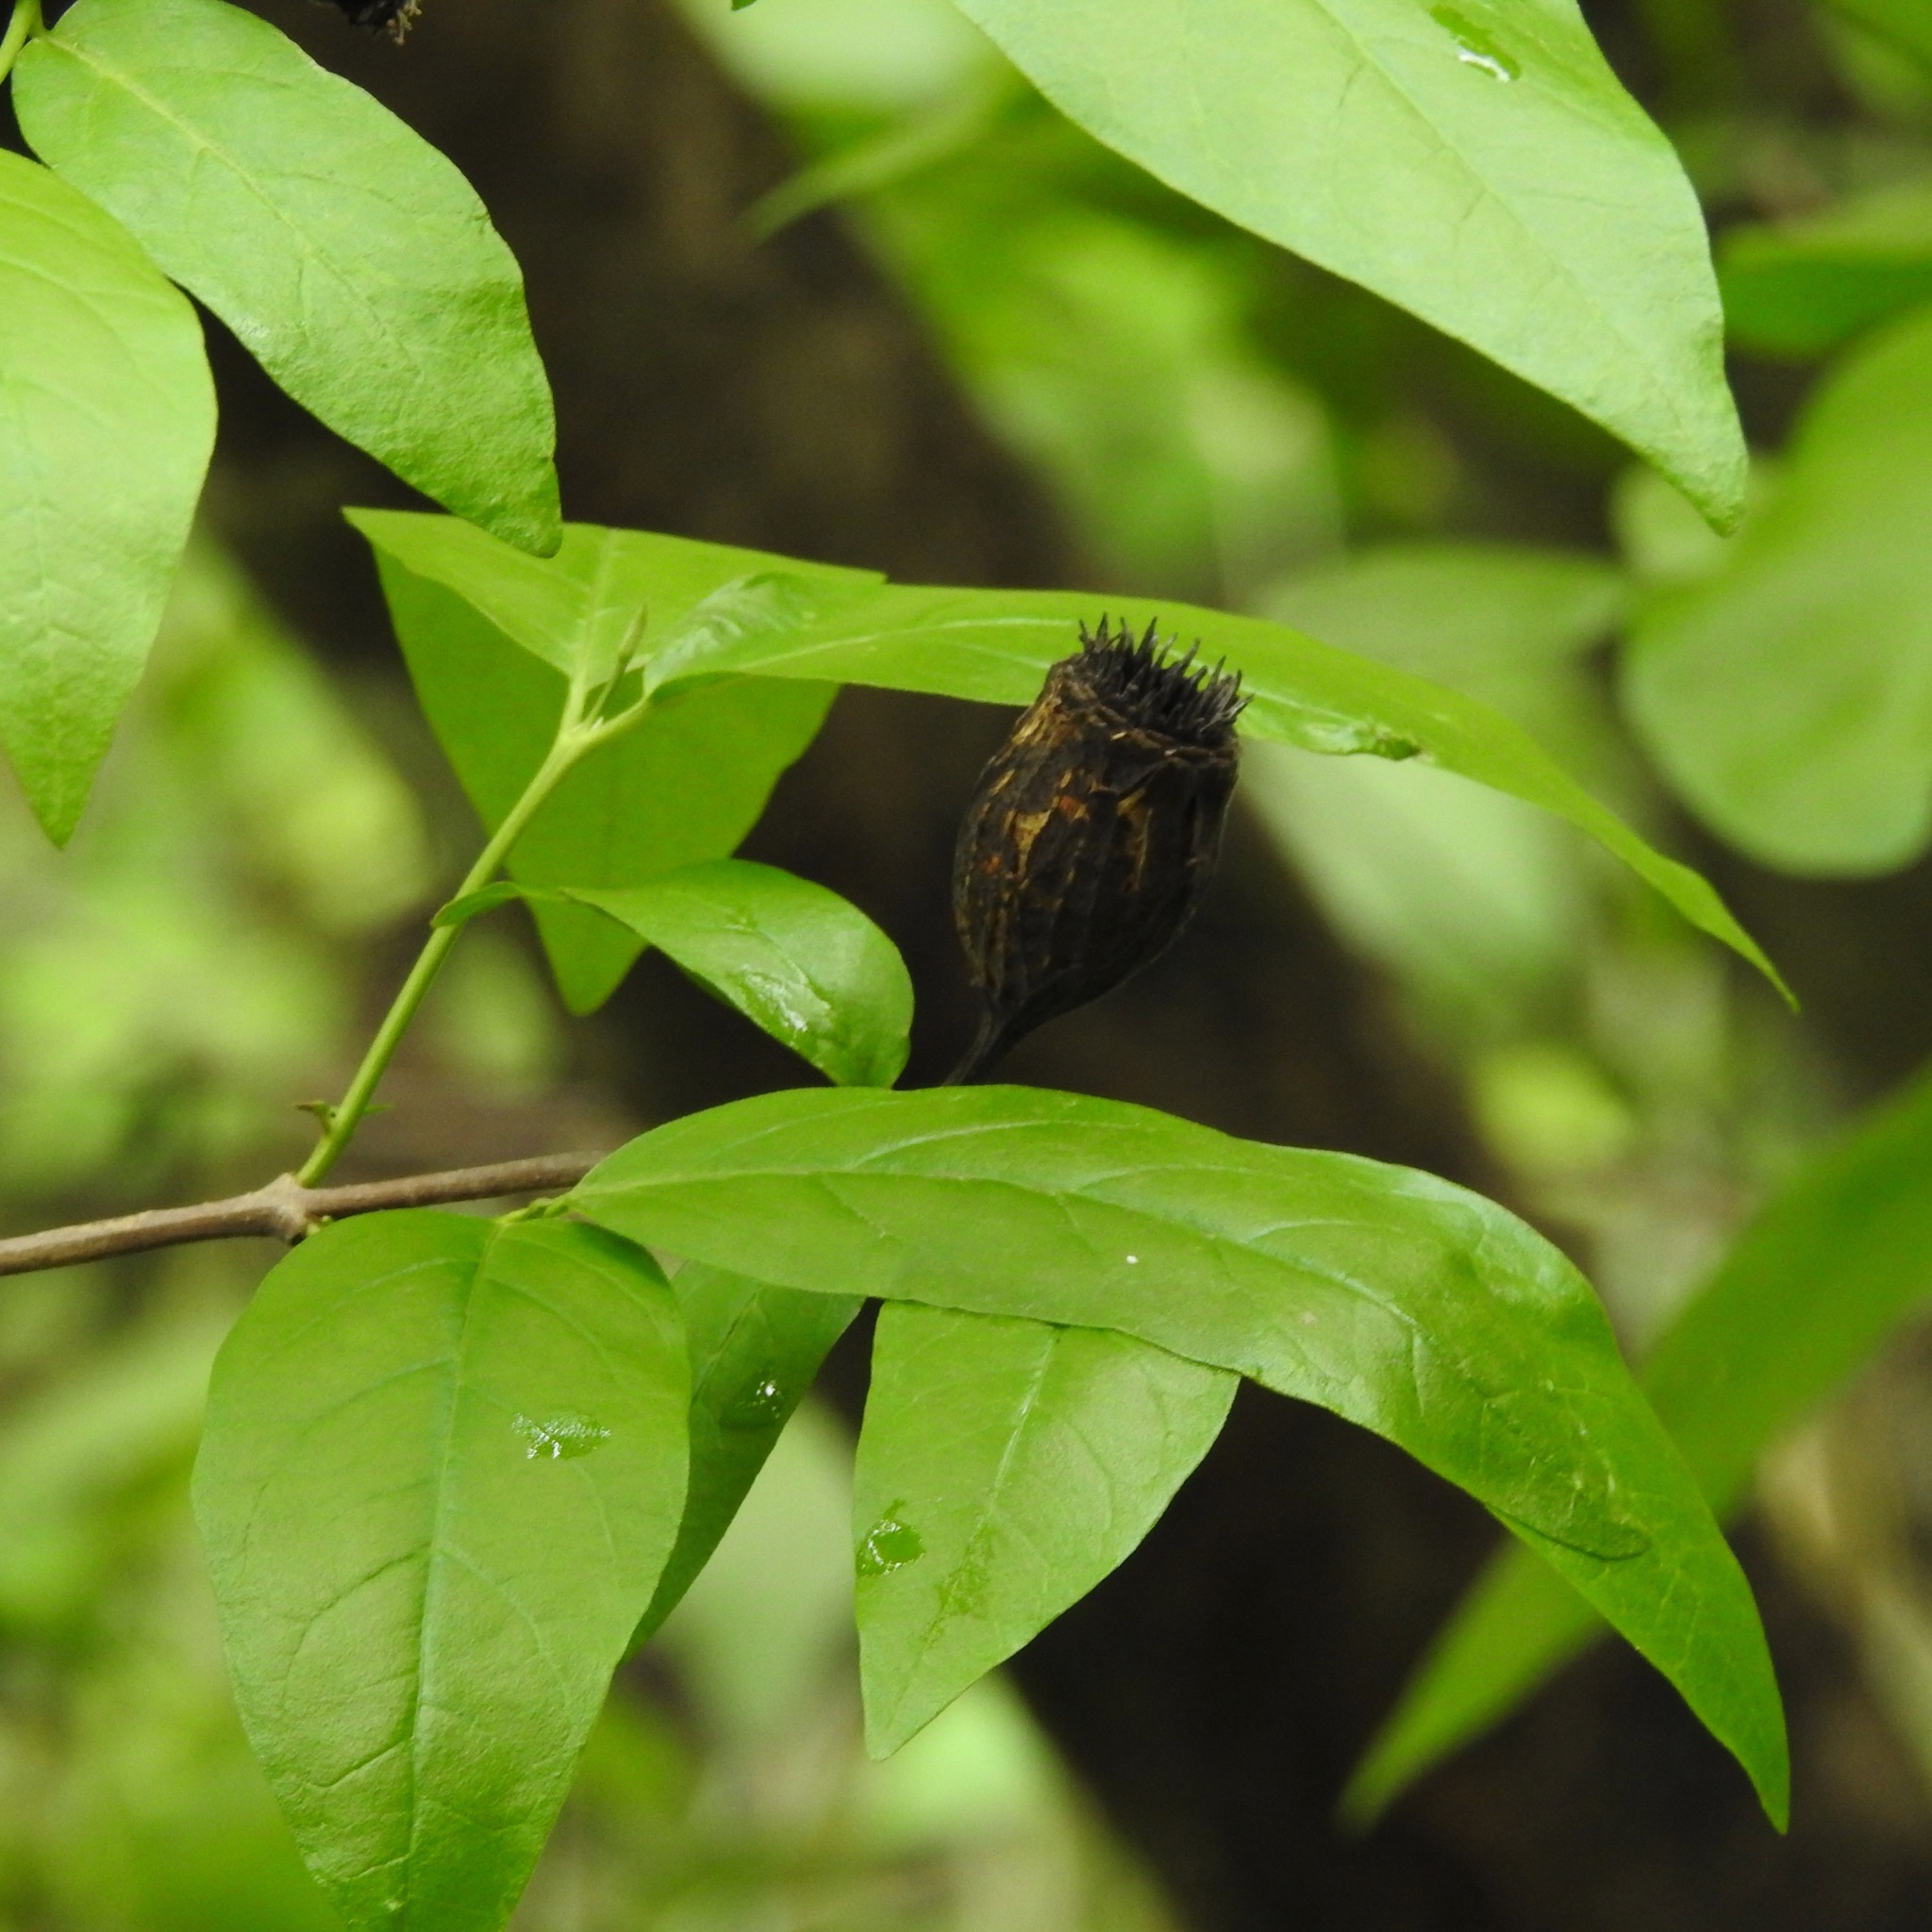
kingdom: Plantae
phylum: Tracheophyta
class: Magnoliopsida
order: Laurales
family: Calycanthaceae
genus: Calycanthus
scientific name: Calycanthus occidentalis
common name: California spicebush
